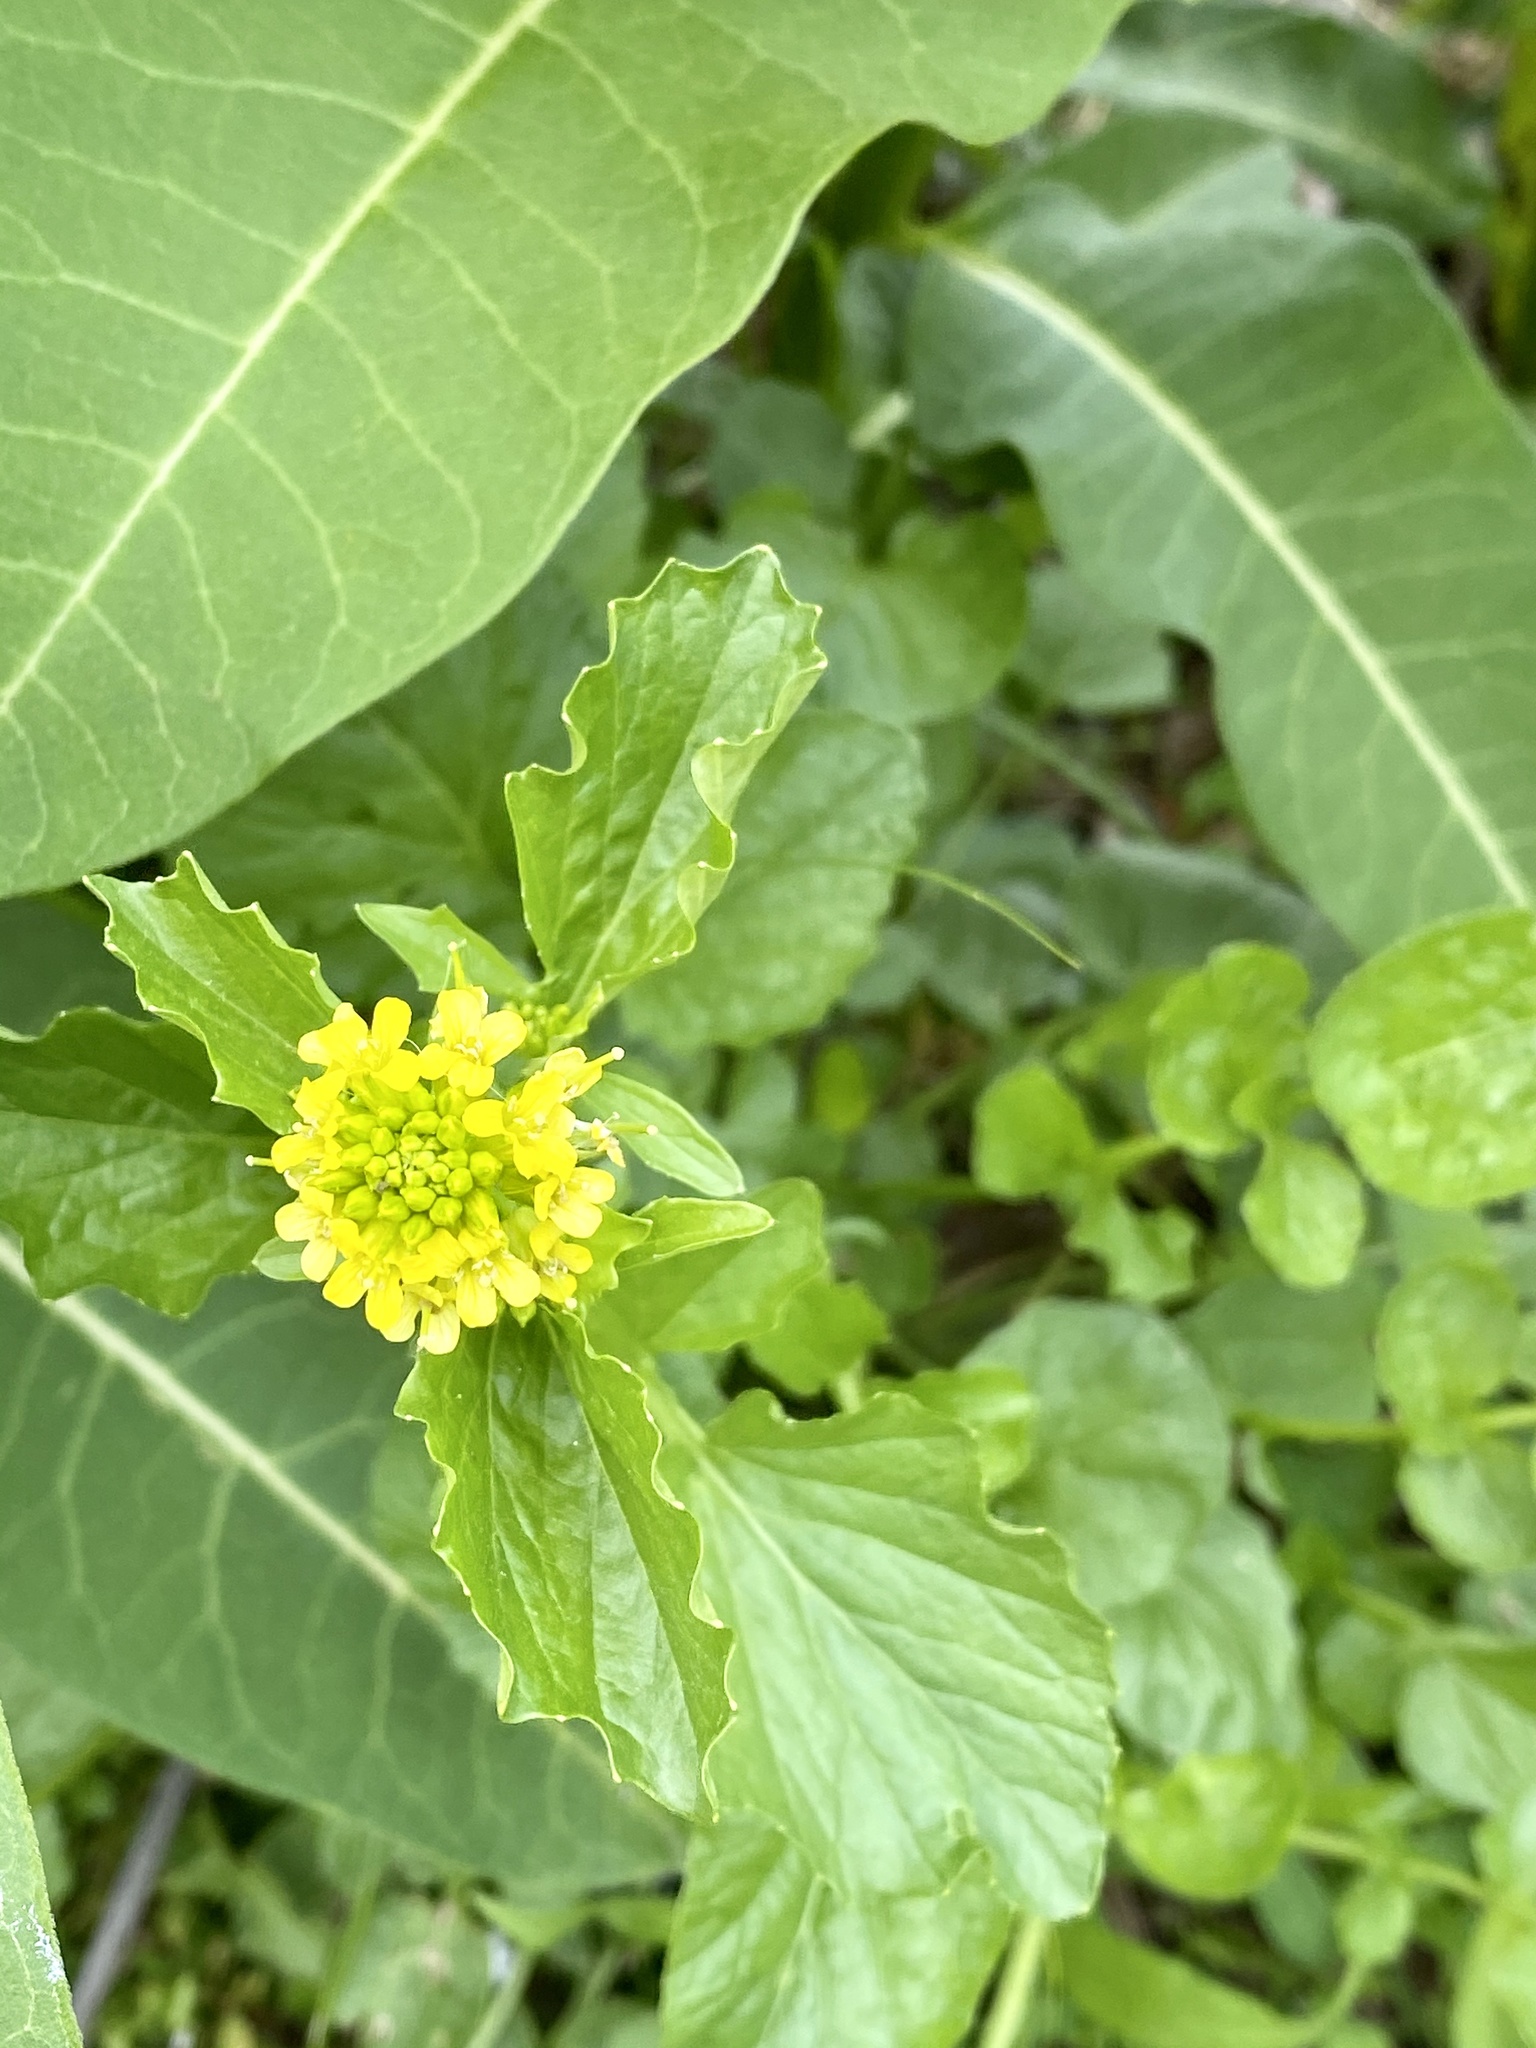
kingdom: Plantae
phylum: Tracheophyta
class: Magnoliopsida
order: Brassicales
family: Brassicaceae
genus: Barbarea
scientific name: Barbarea vulgaris
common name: Cressy-greens
